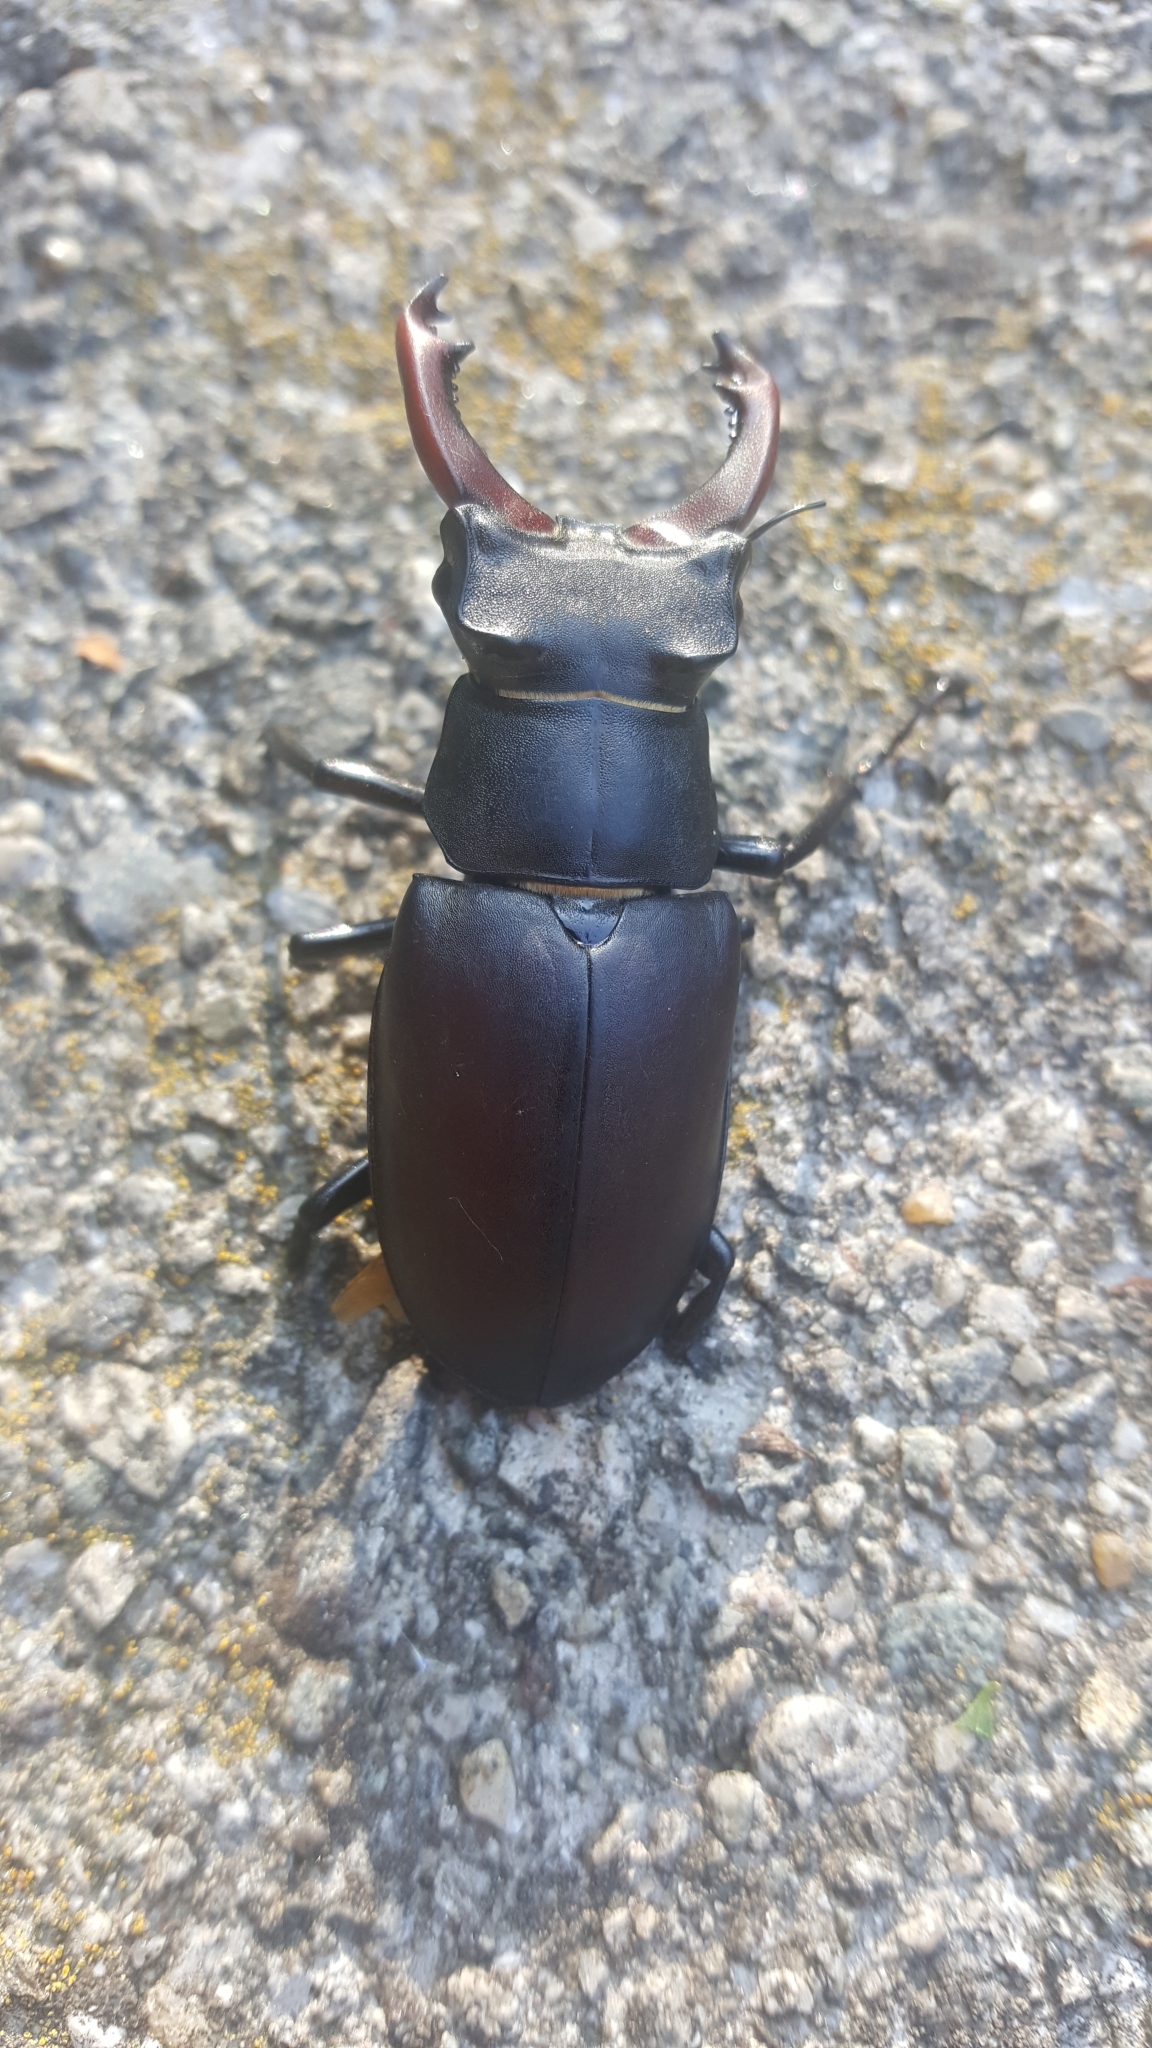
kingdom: Animalia
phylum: Arthropoda
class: Insecta
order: Coleoptera
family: Lucanidae
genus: Lucanus
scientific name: Lucanus cervus
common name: Stag beetle
